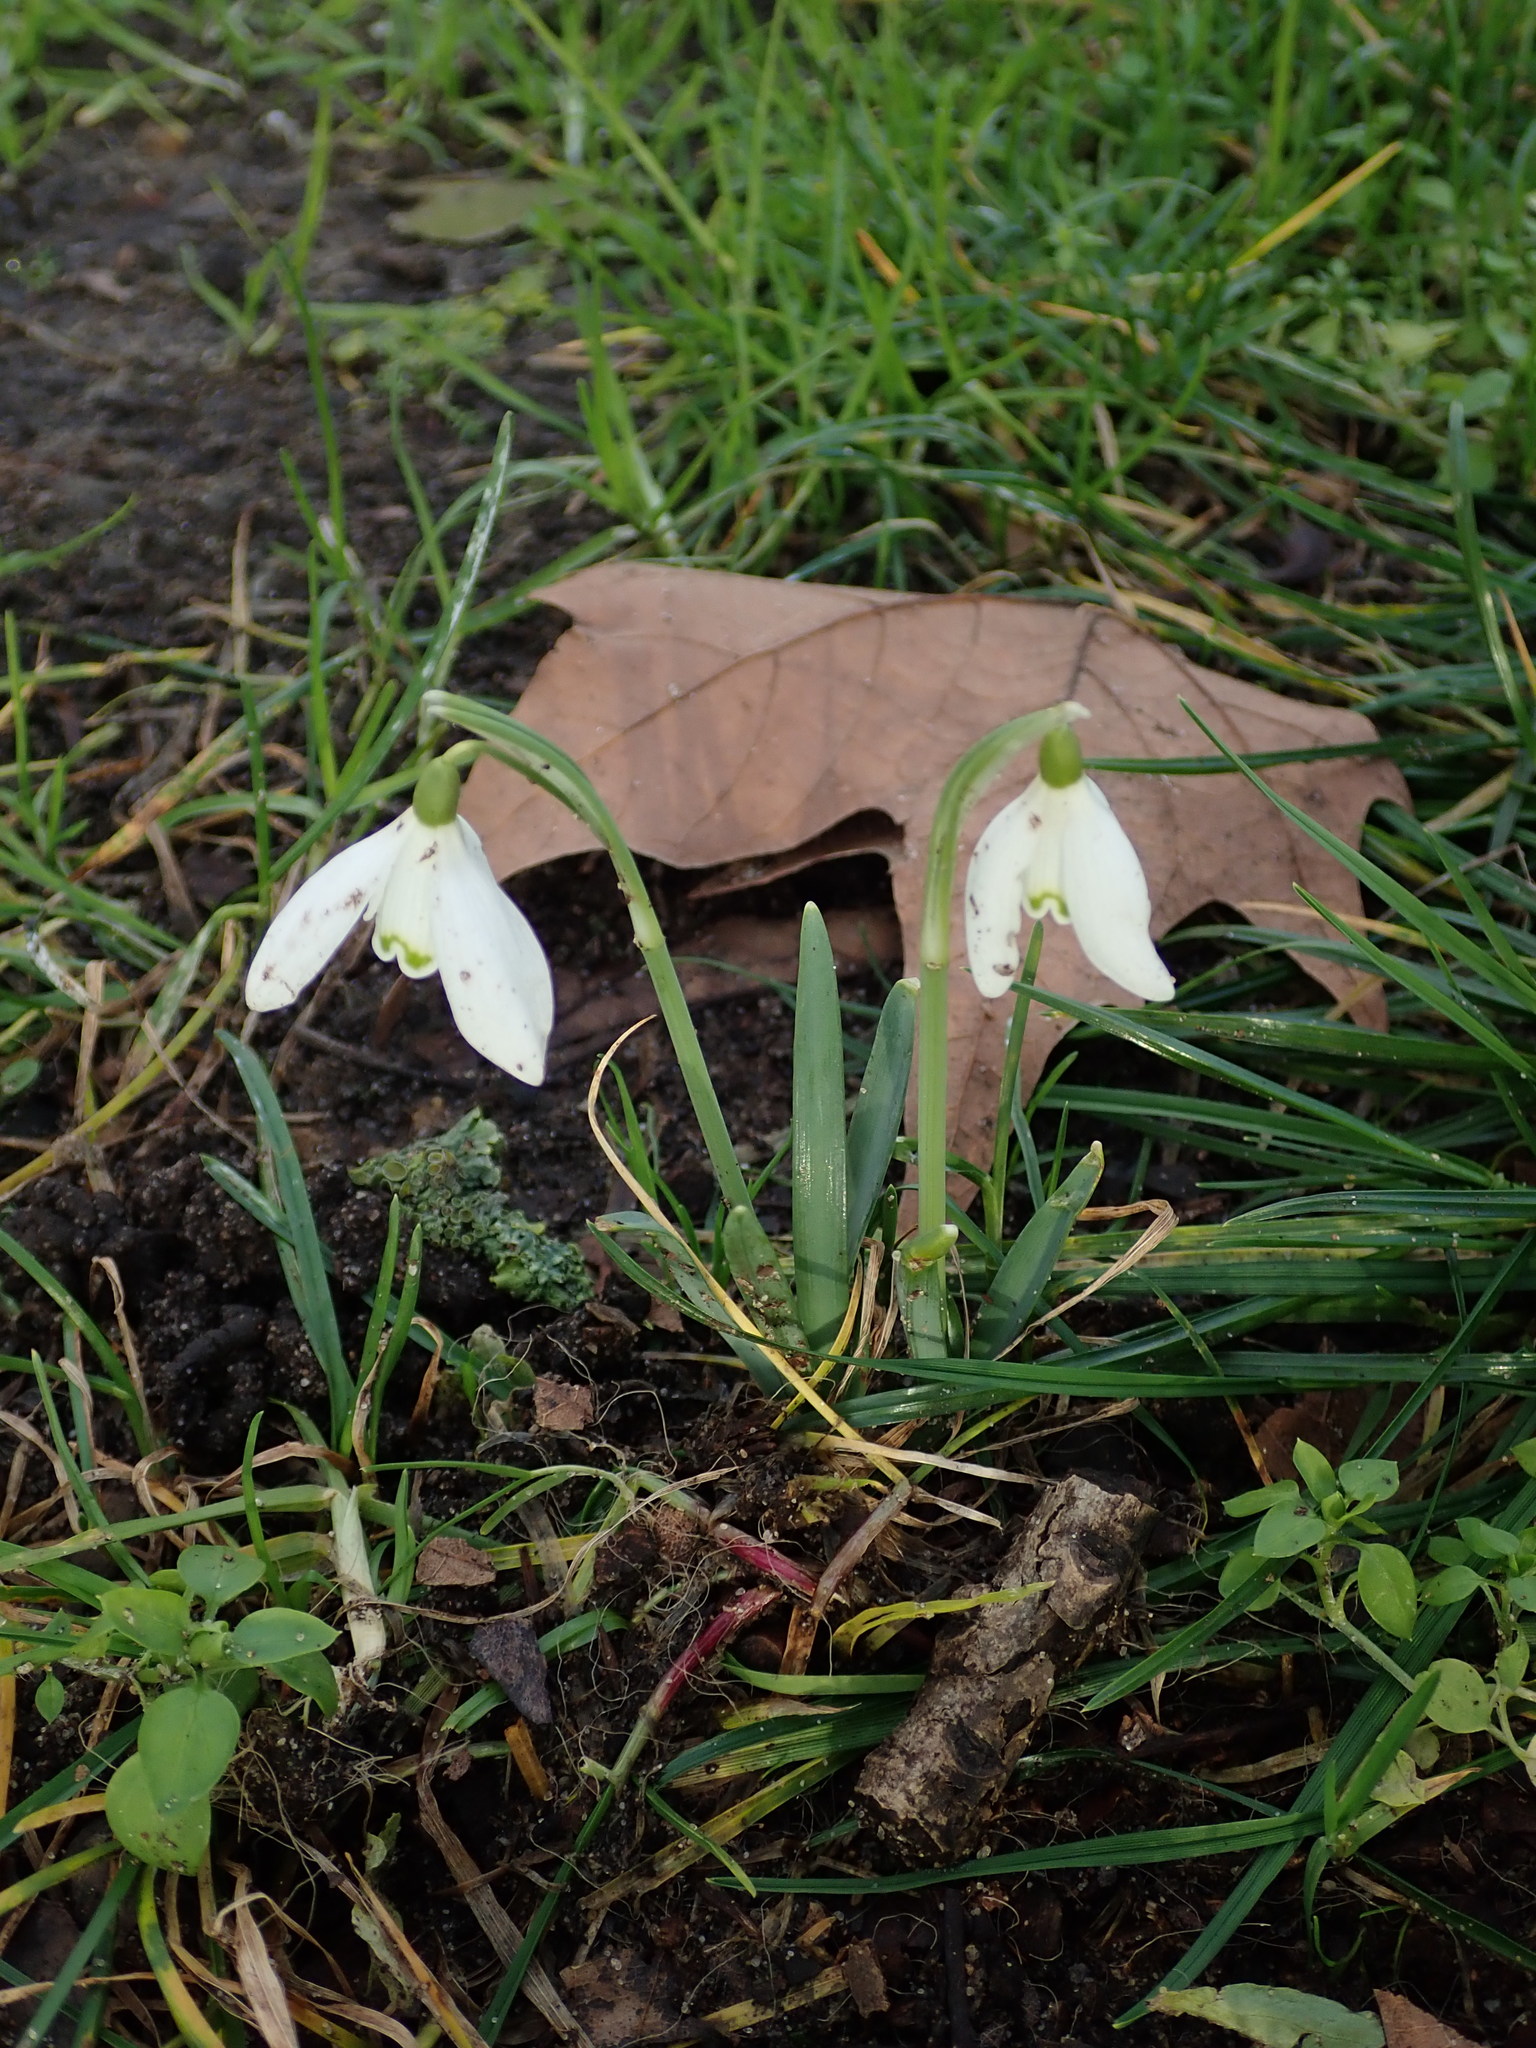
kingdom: Plantae
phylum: Tracheophyta
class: Liliopsida
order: Asparagales
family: Amaryllidaceae
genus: Galanthus
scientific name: Galanthus nivalis
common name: Snowdrop
